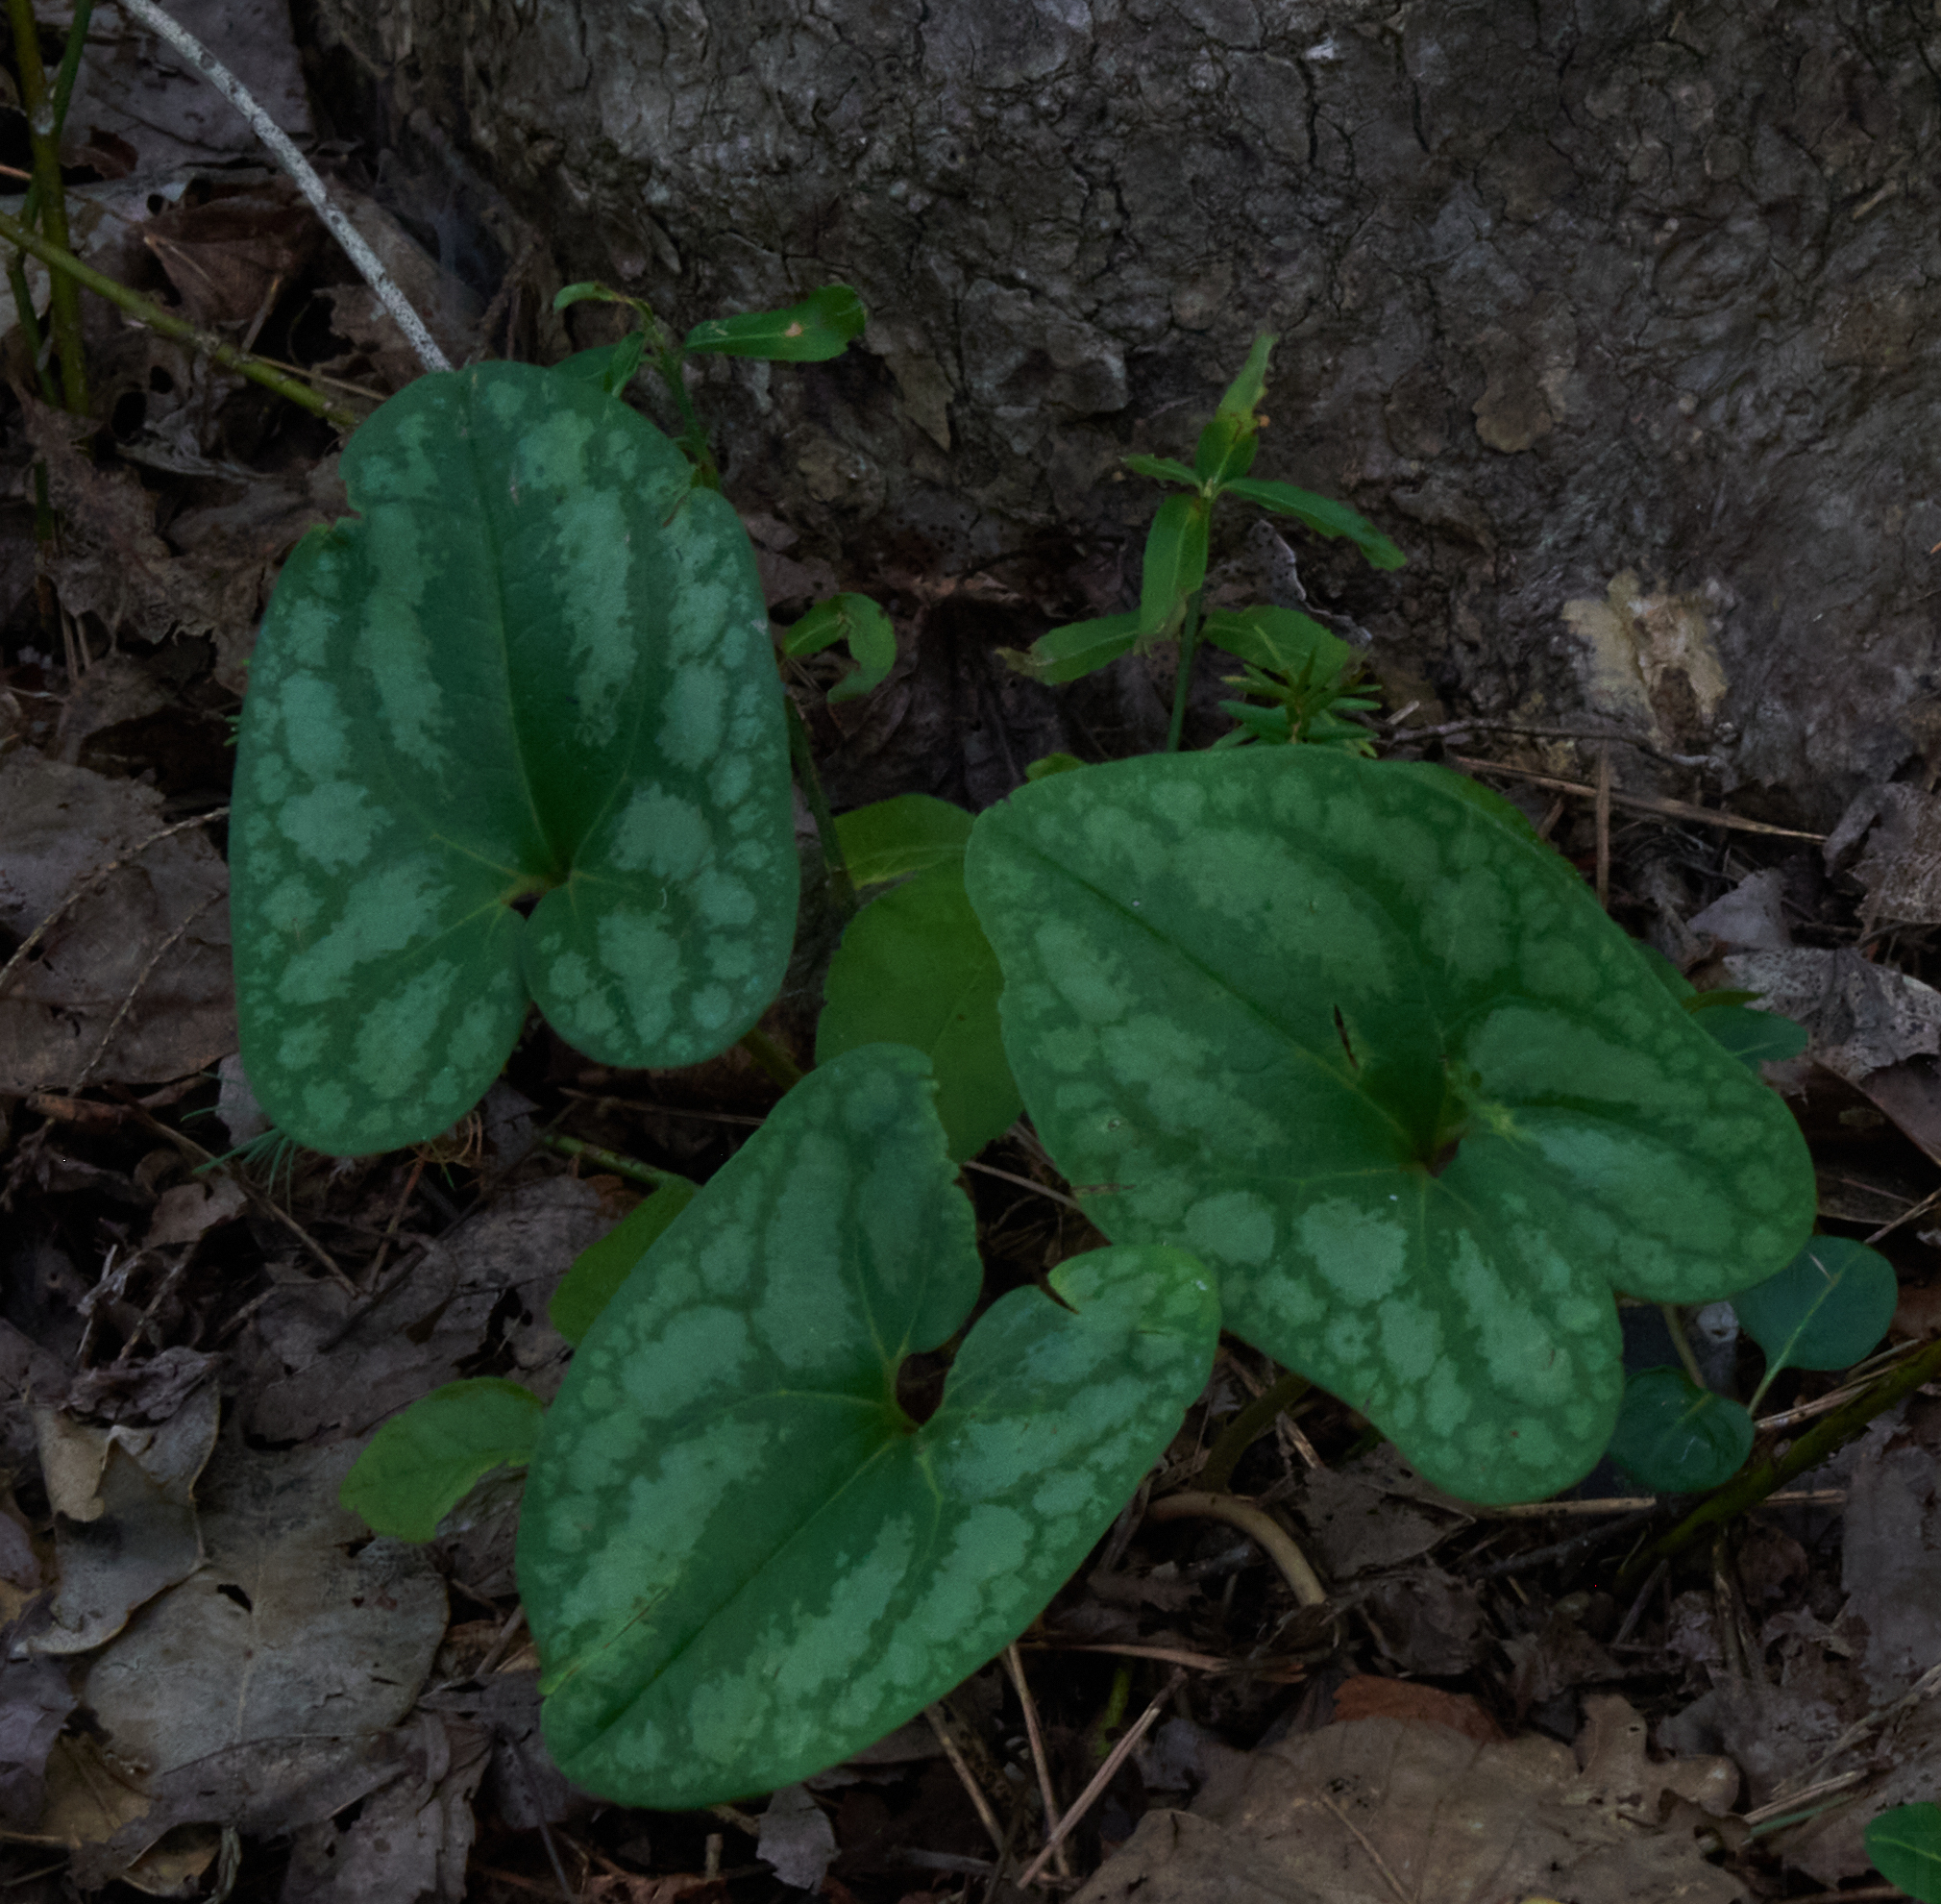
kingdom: Plantae
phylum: Tracheophyta
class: Magnoliopsida
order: Piperales
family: Aristolochiaceae
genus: Hexastylis
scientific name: Hexastylis arifolia
